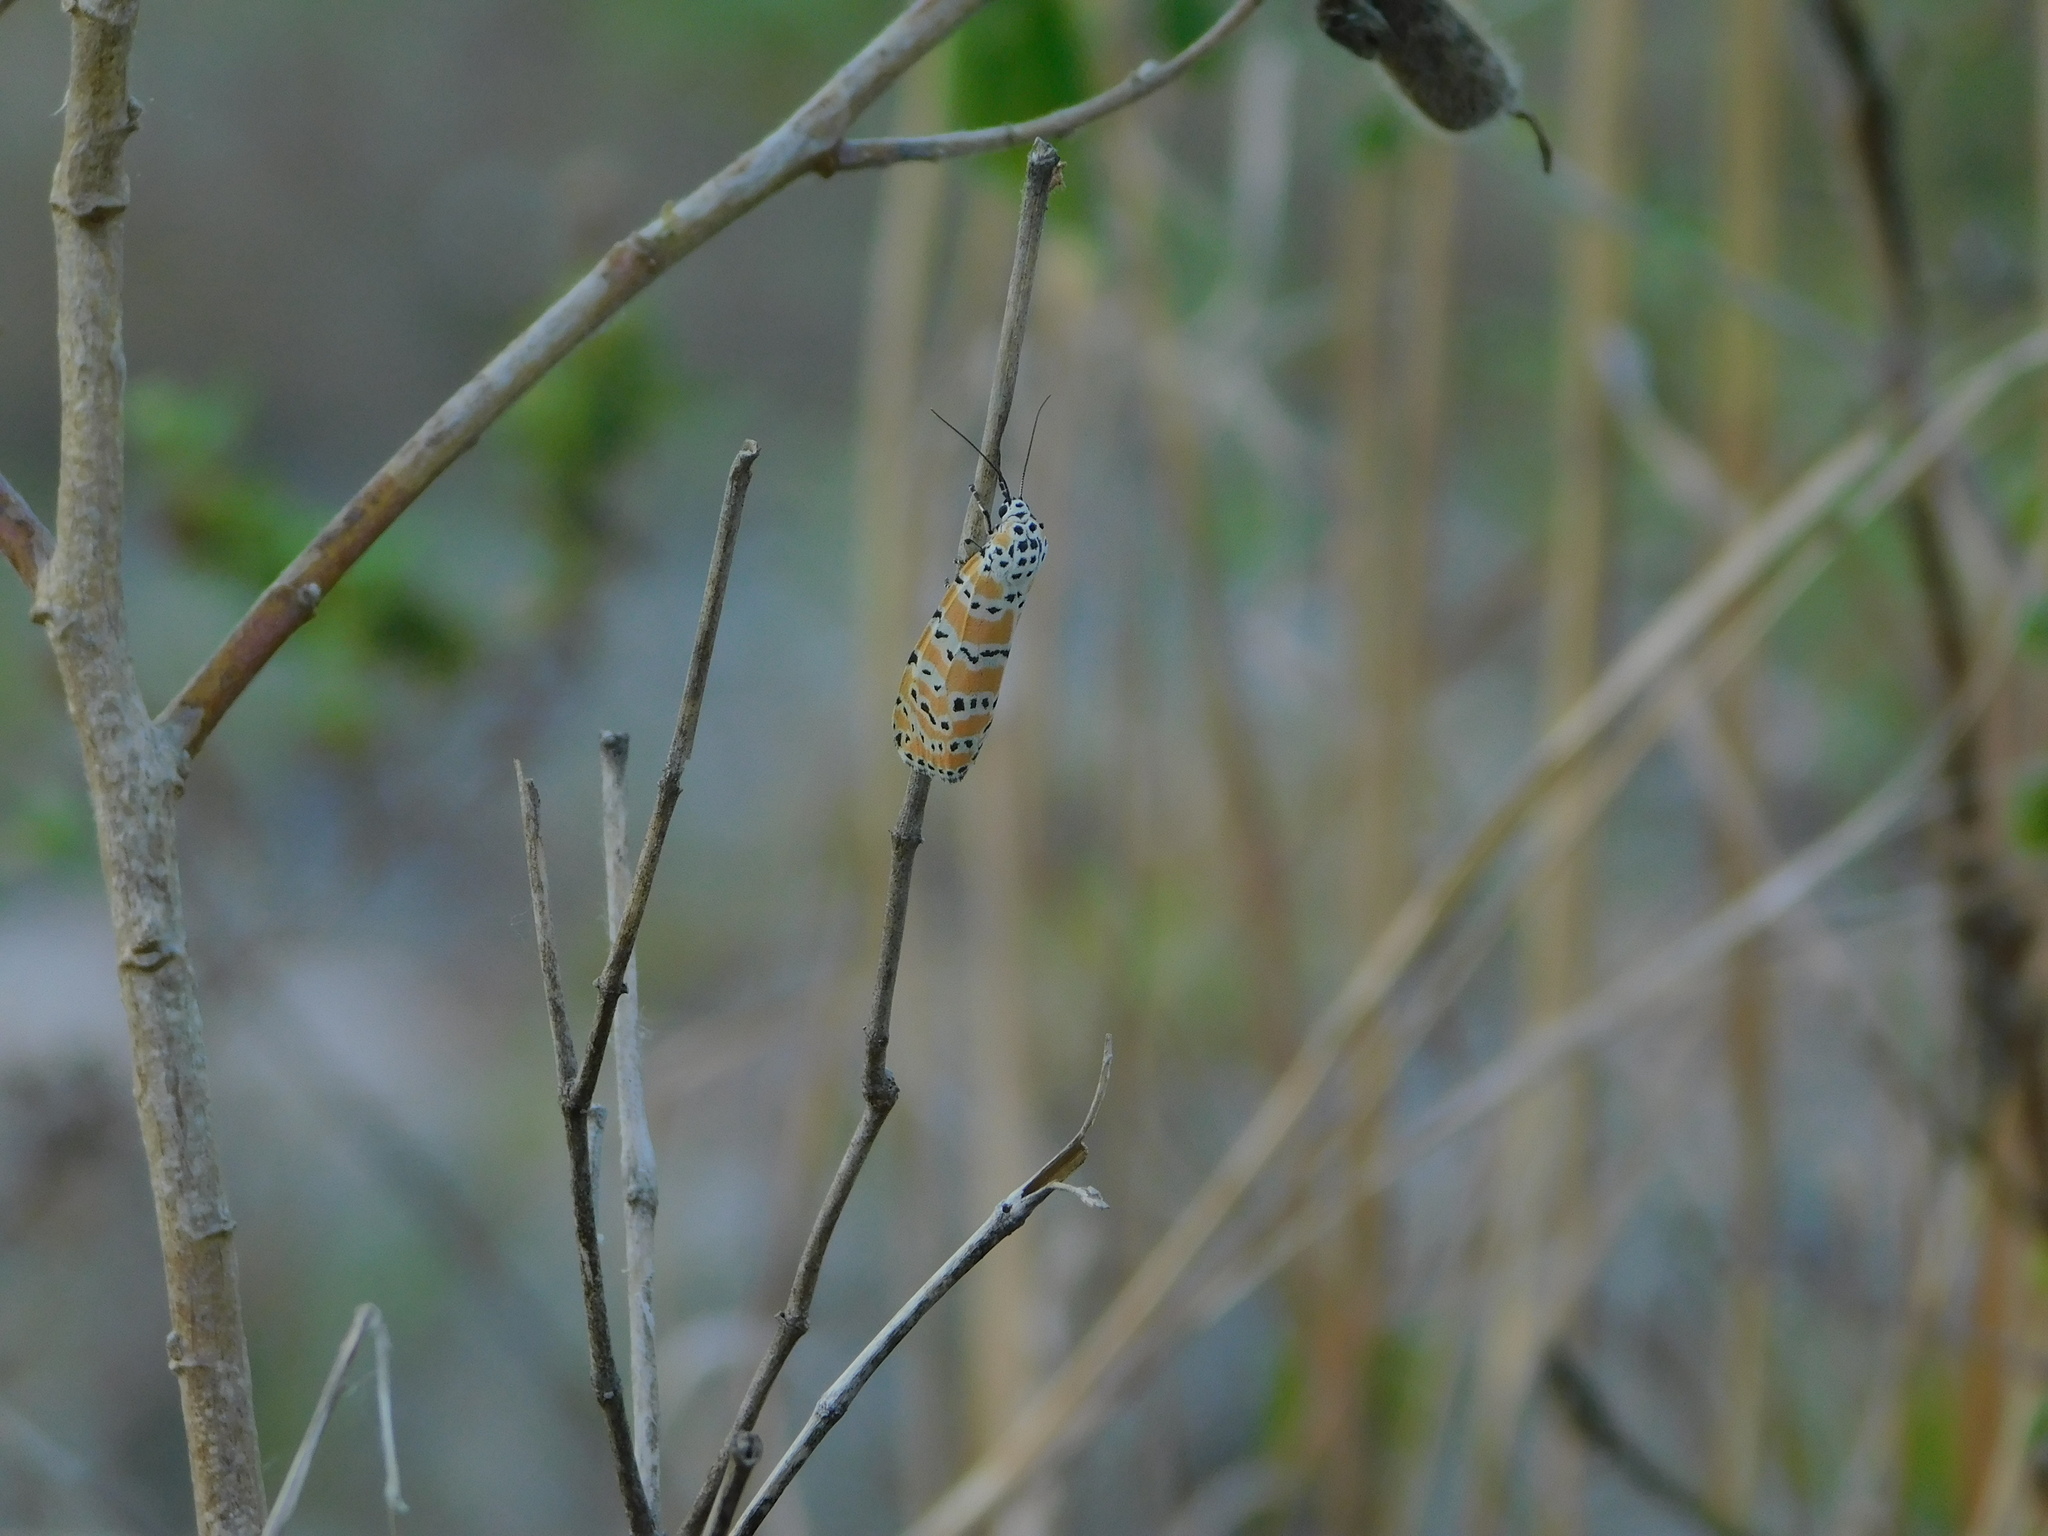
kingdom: Animalia
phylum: Arthropoda
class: Insecta
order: Lepidoptera
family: Erebidae
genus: Utetheisa
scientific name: Utetheisa ornatrix
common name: Beautiful utetheisa
